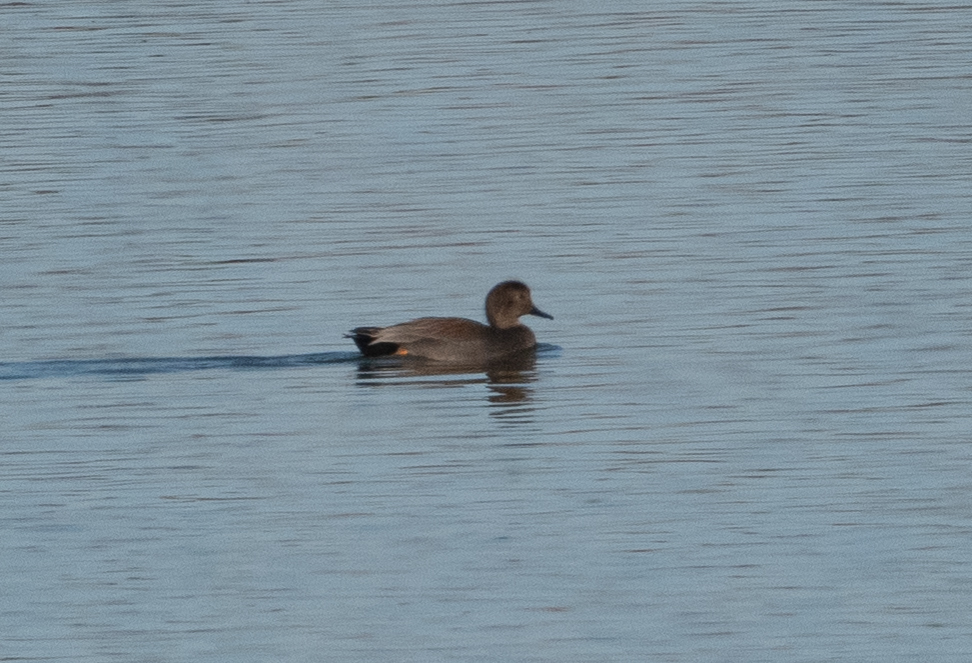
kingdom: Animalia
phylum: Chordata
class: Aves
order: Anseriformes
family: Anatidae
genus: Mareca
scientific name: Mareca strepera
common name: Gadwall
